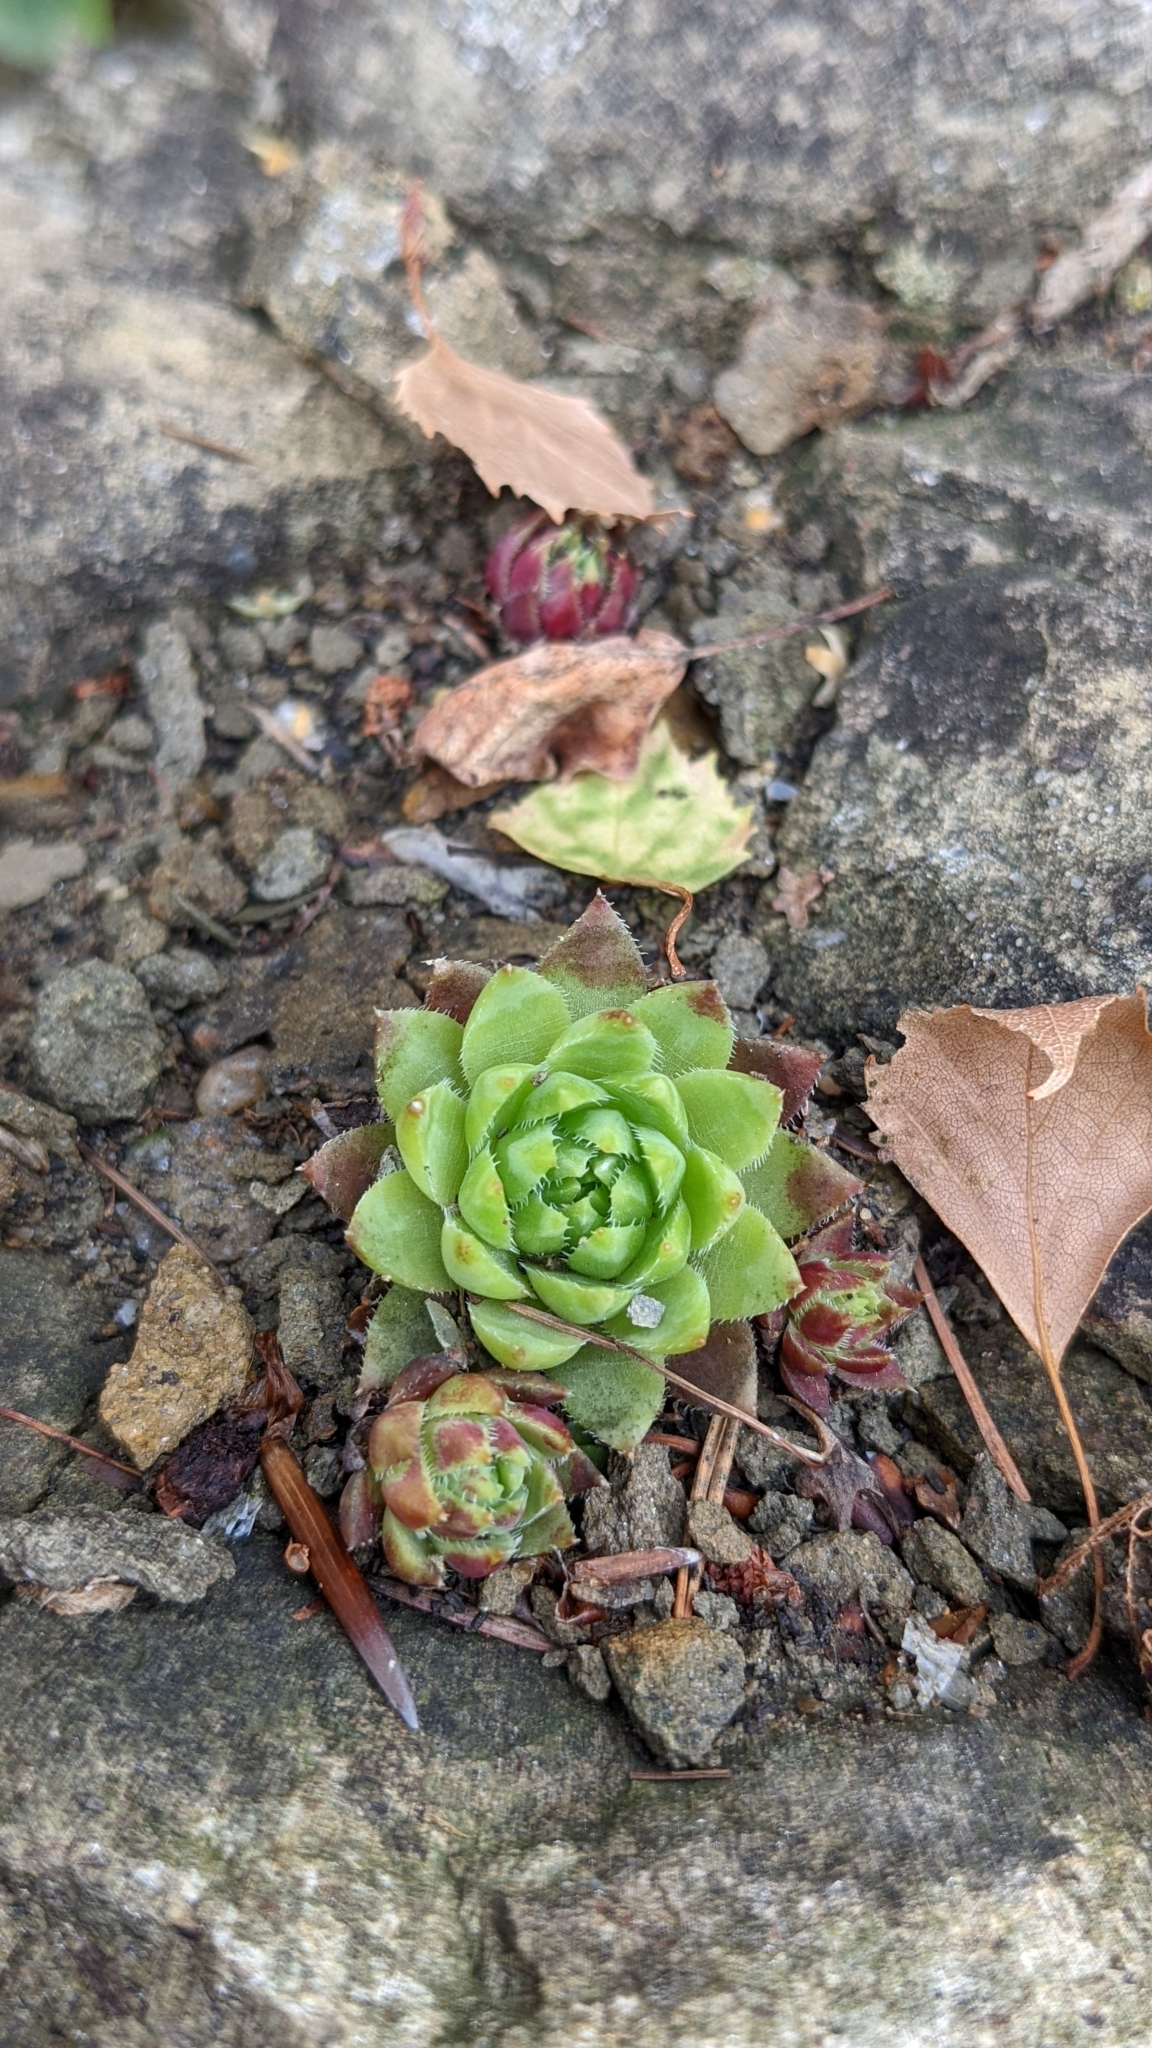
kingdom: Plantae
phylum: Tracheophyta
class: Magnoliopsida
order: Saxifragales
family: Crassulaceae
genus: Sempervivum
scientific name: Sempervivum globiferum
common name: Rolling hen-and-chicks
